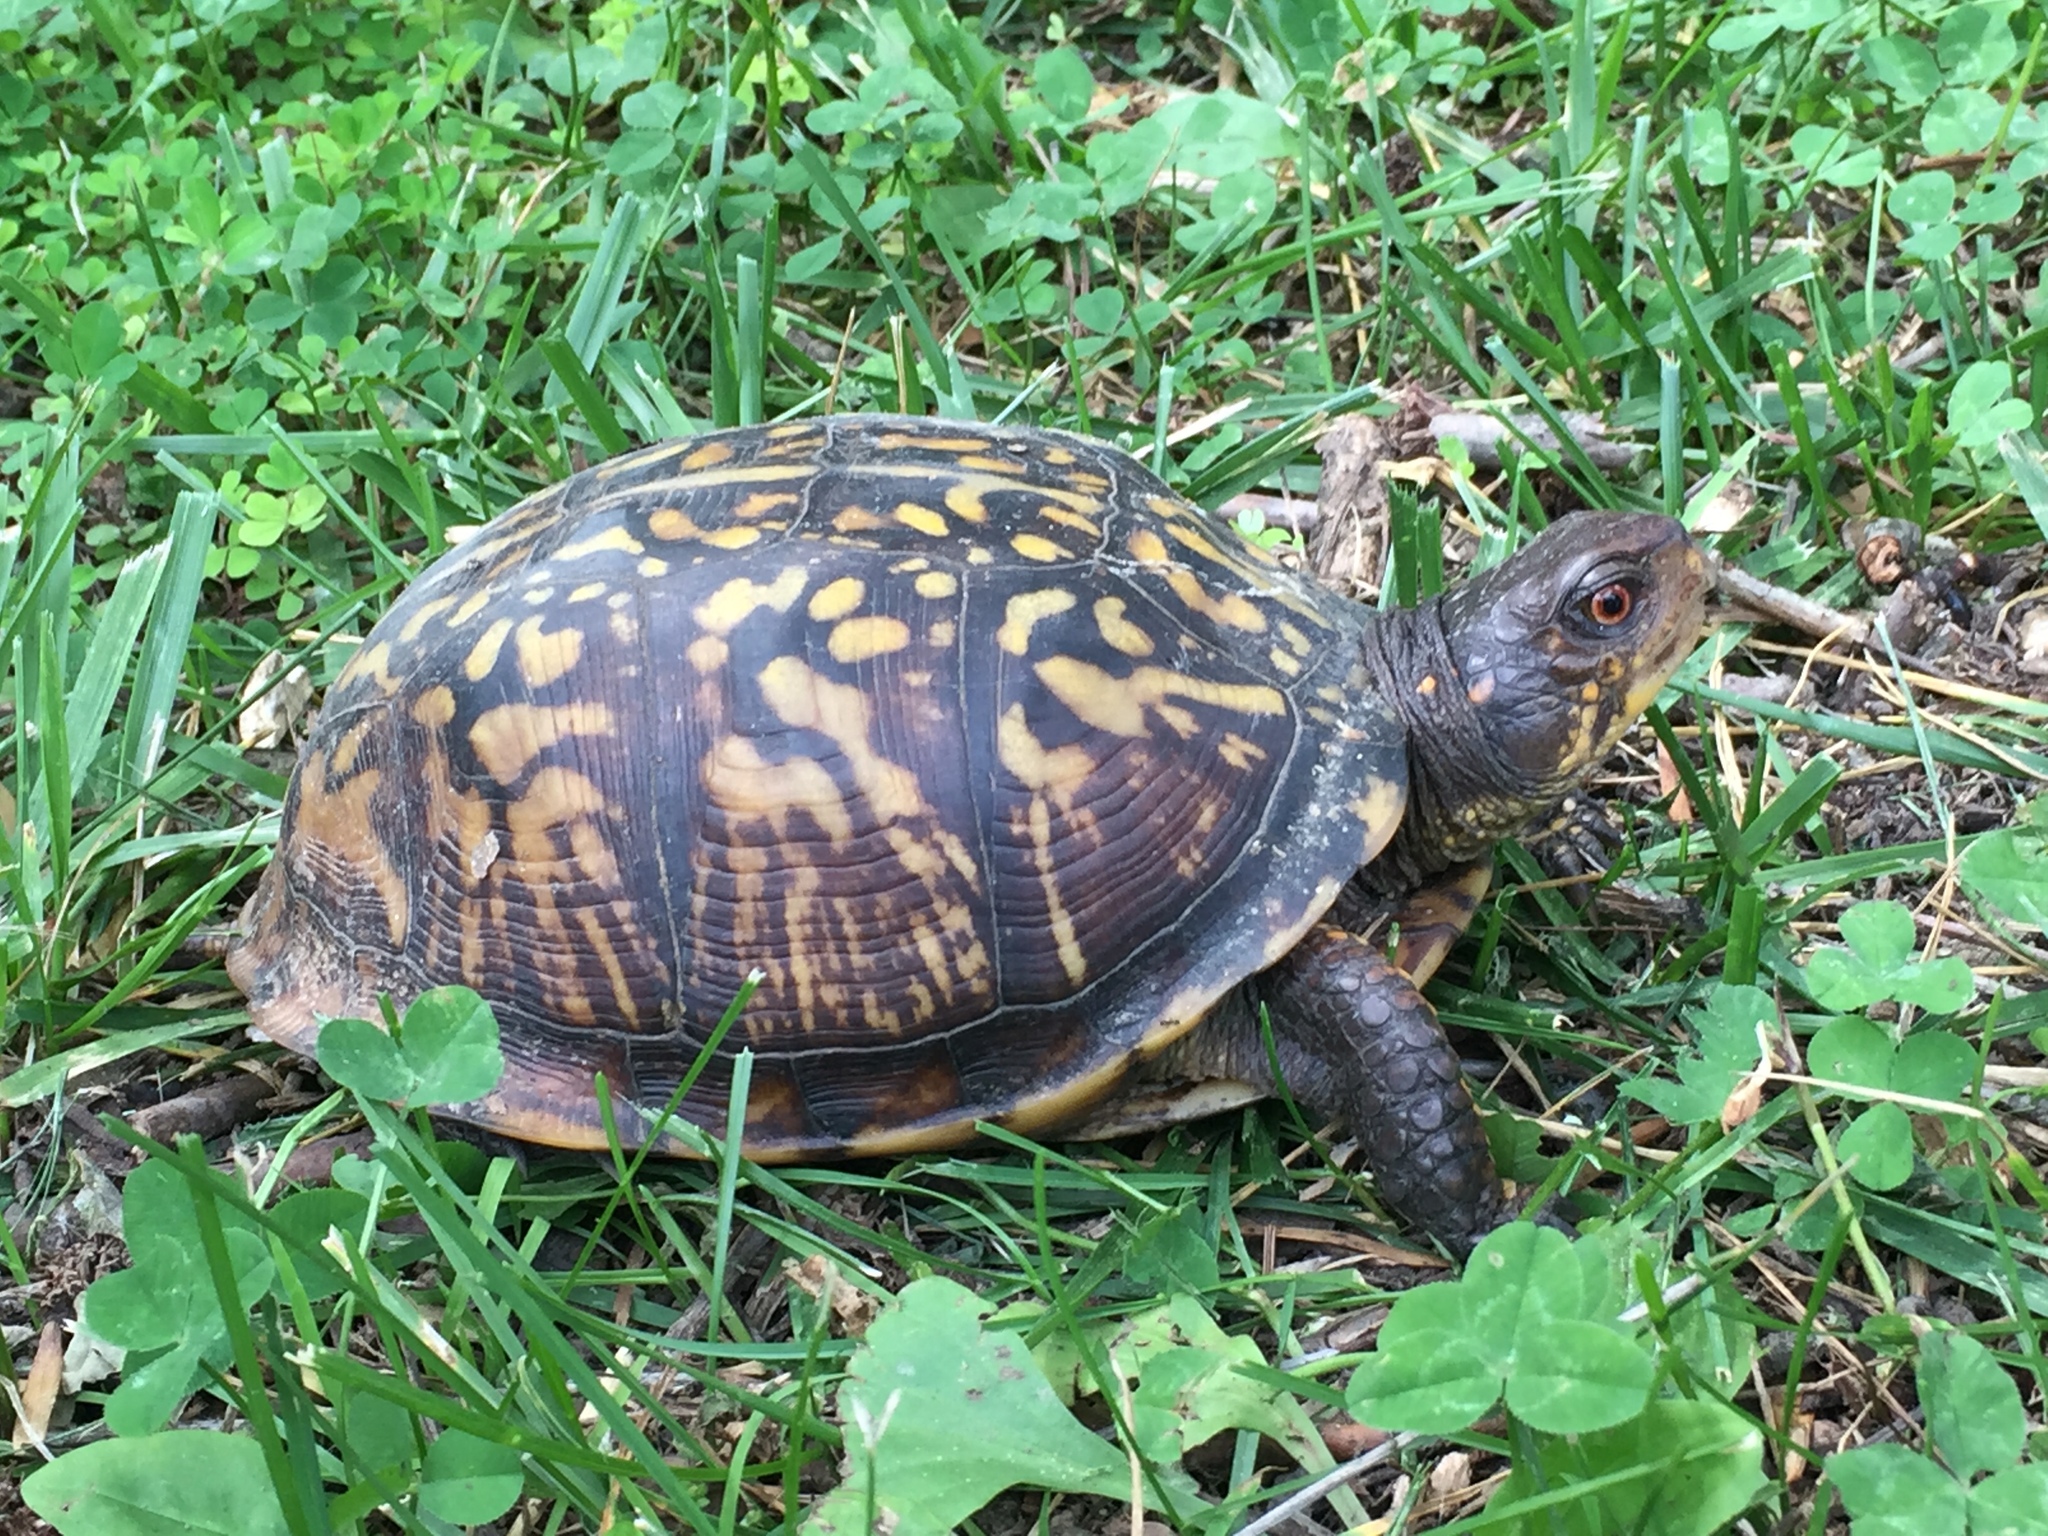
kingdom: Animalia
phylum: Chordata
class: Testudines
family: Emydidae
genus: Terrapene
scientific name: Terrapene carolina
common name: Common box turtle
